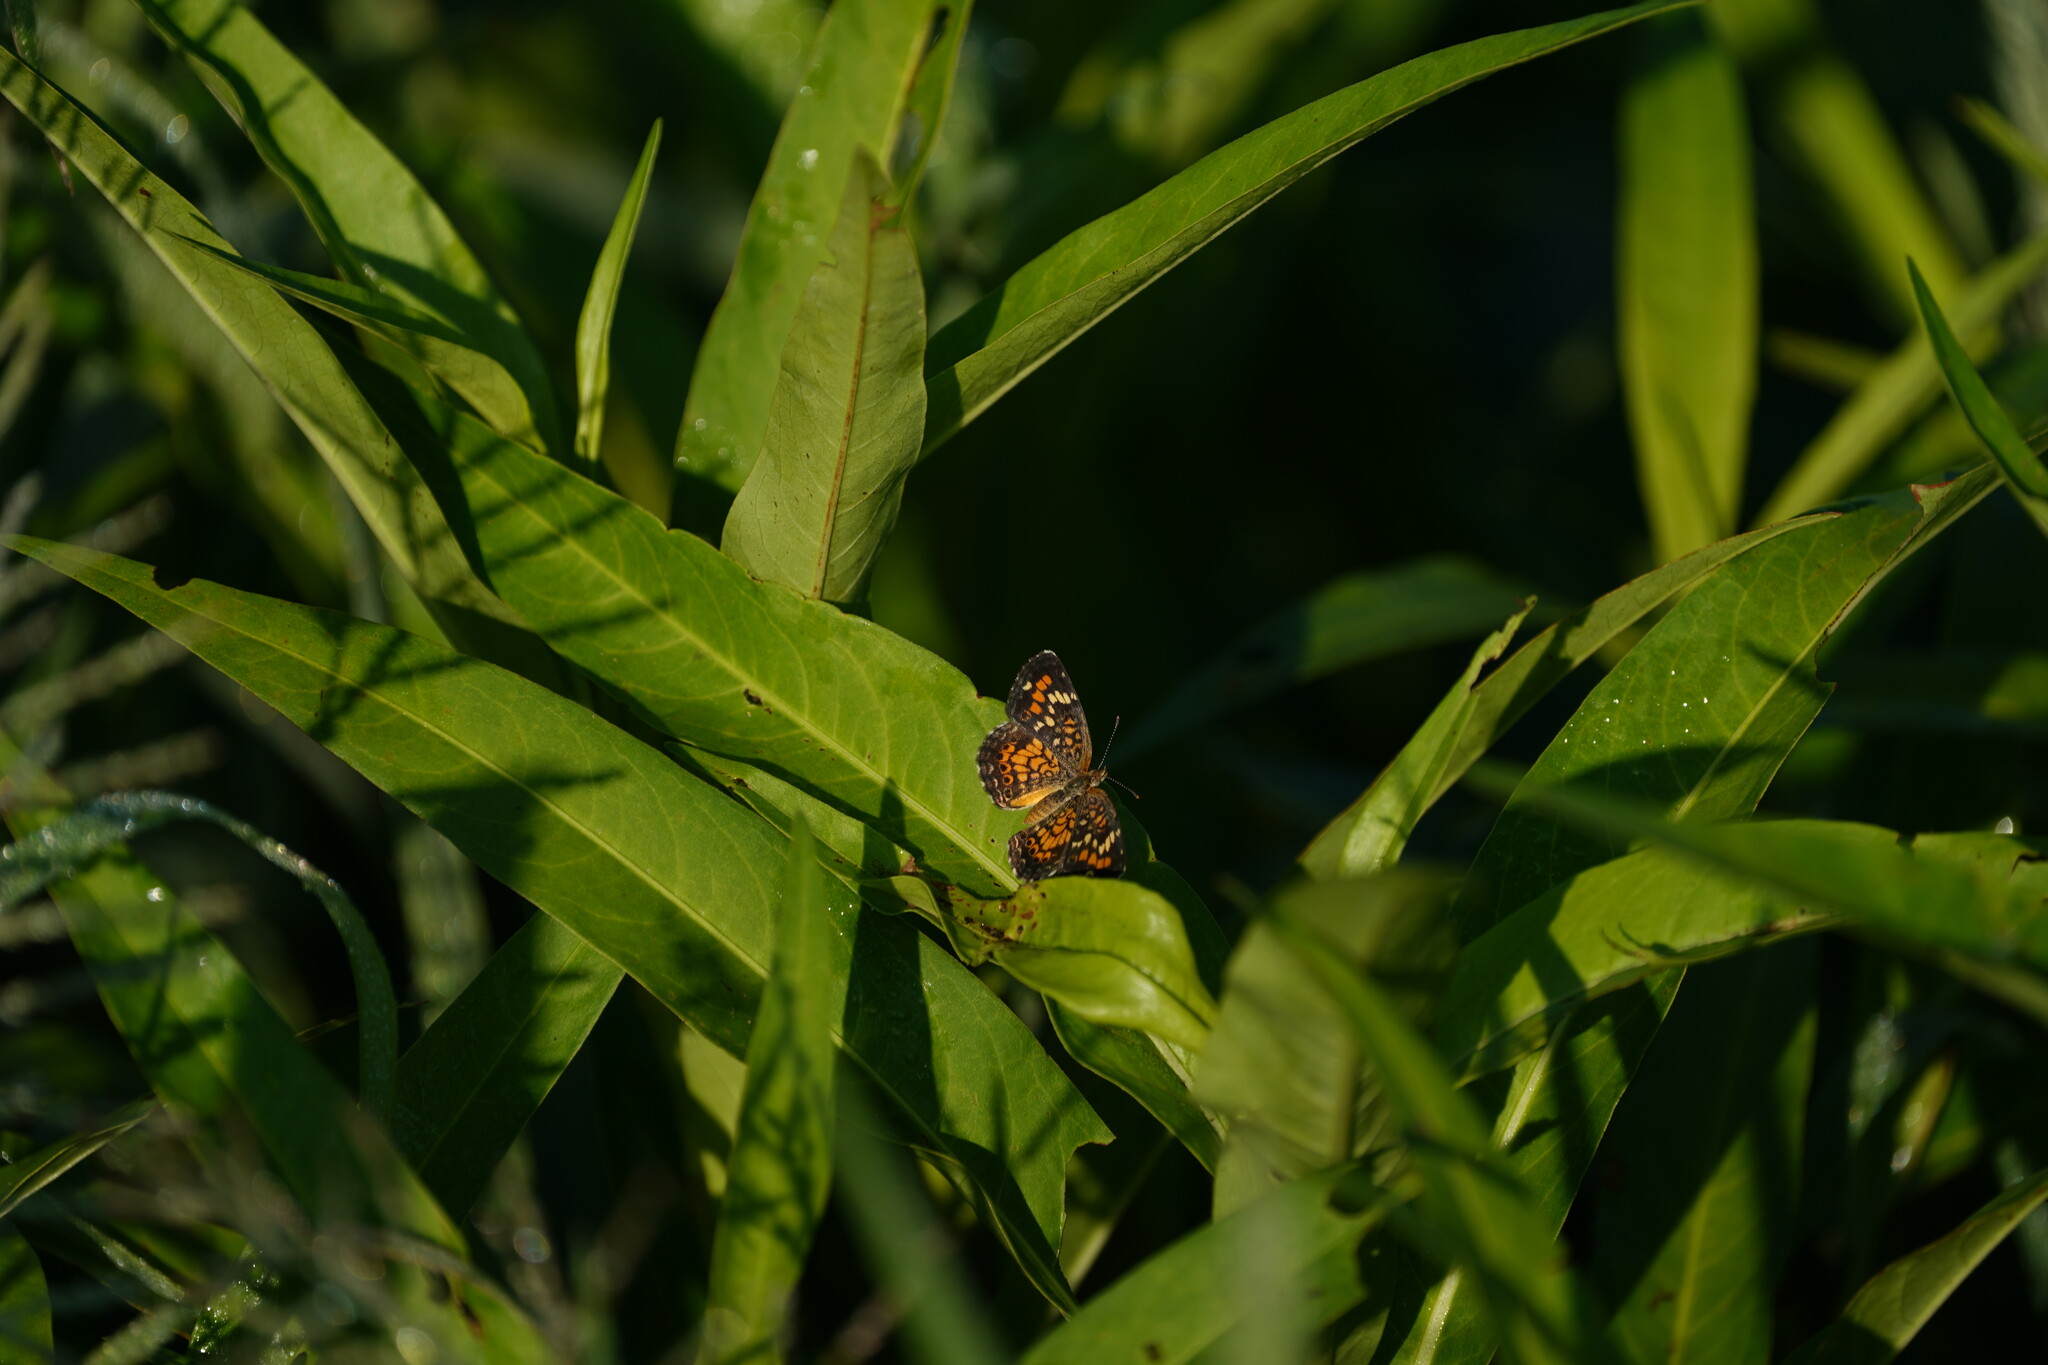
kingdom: Animalia
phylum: Arthropoda
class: Insecta
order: Lepidoptera
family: Nymphalidae
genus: Phyciodes
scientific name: Phyciodes phaon
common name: Phaon crescent
